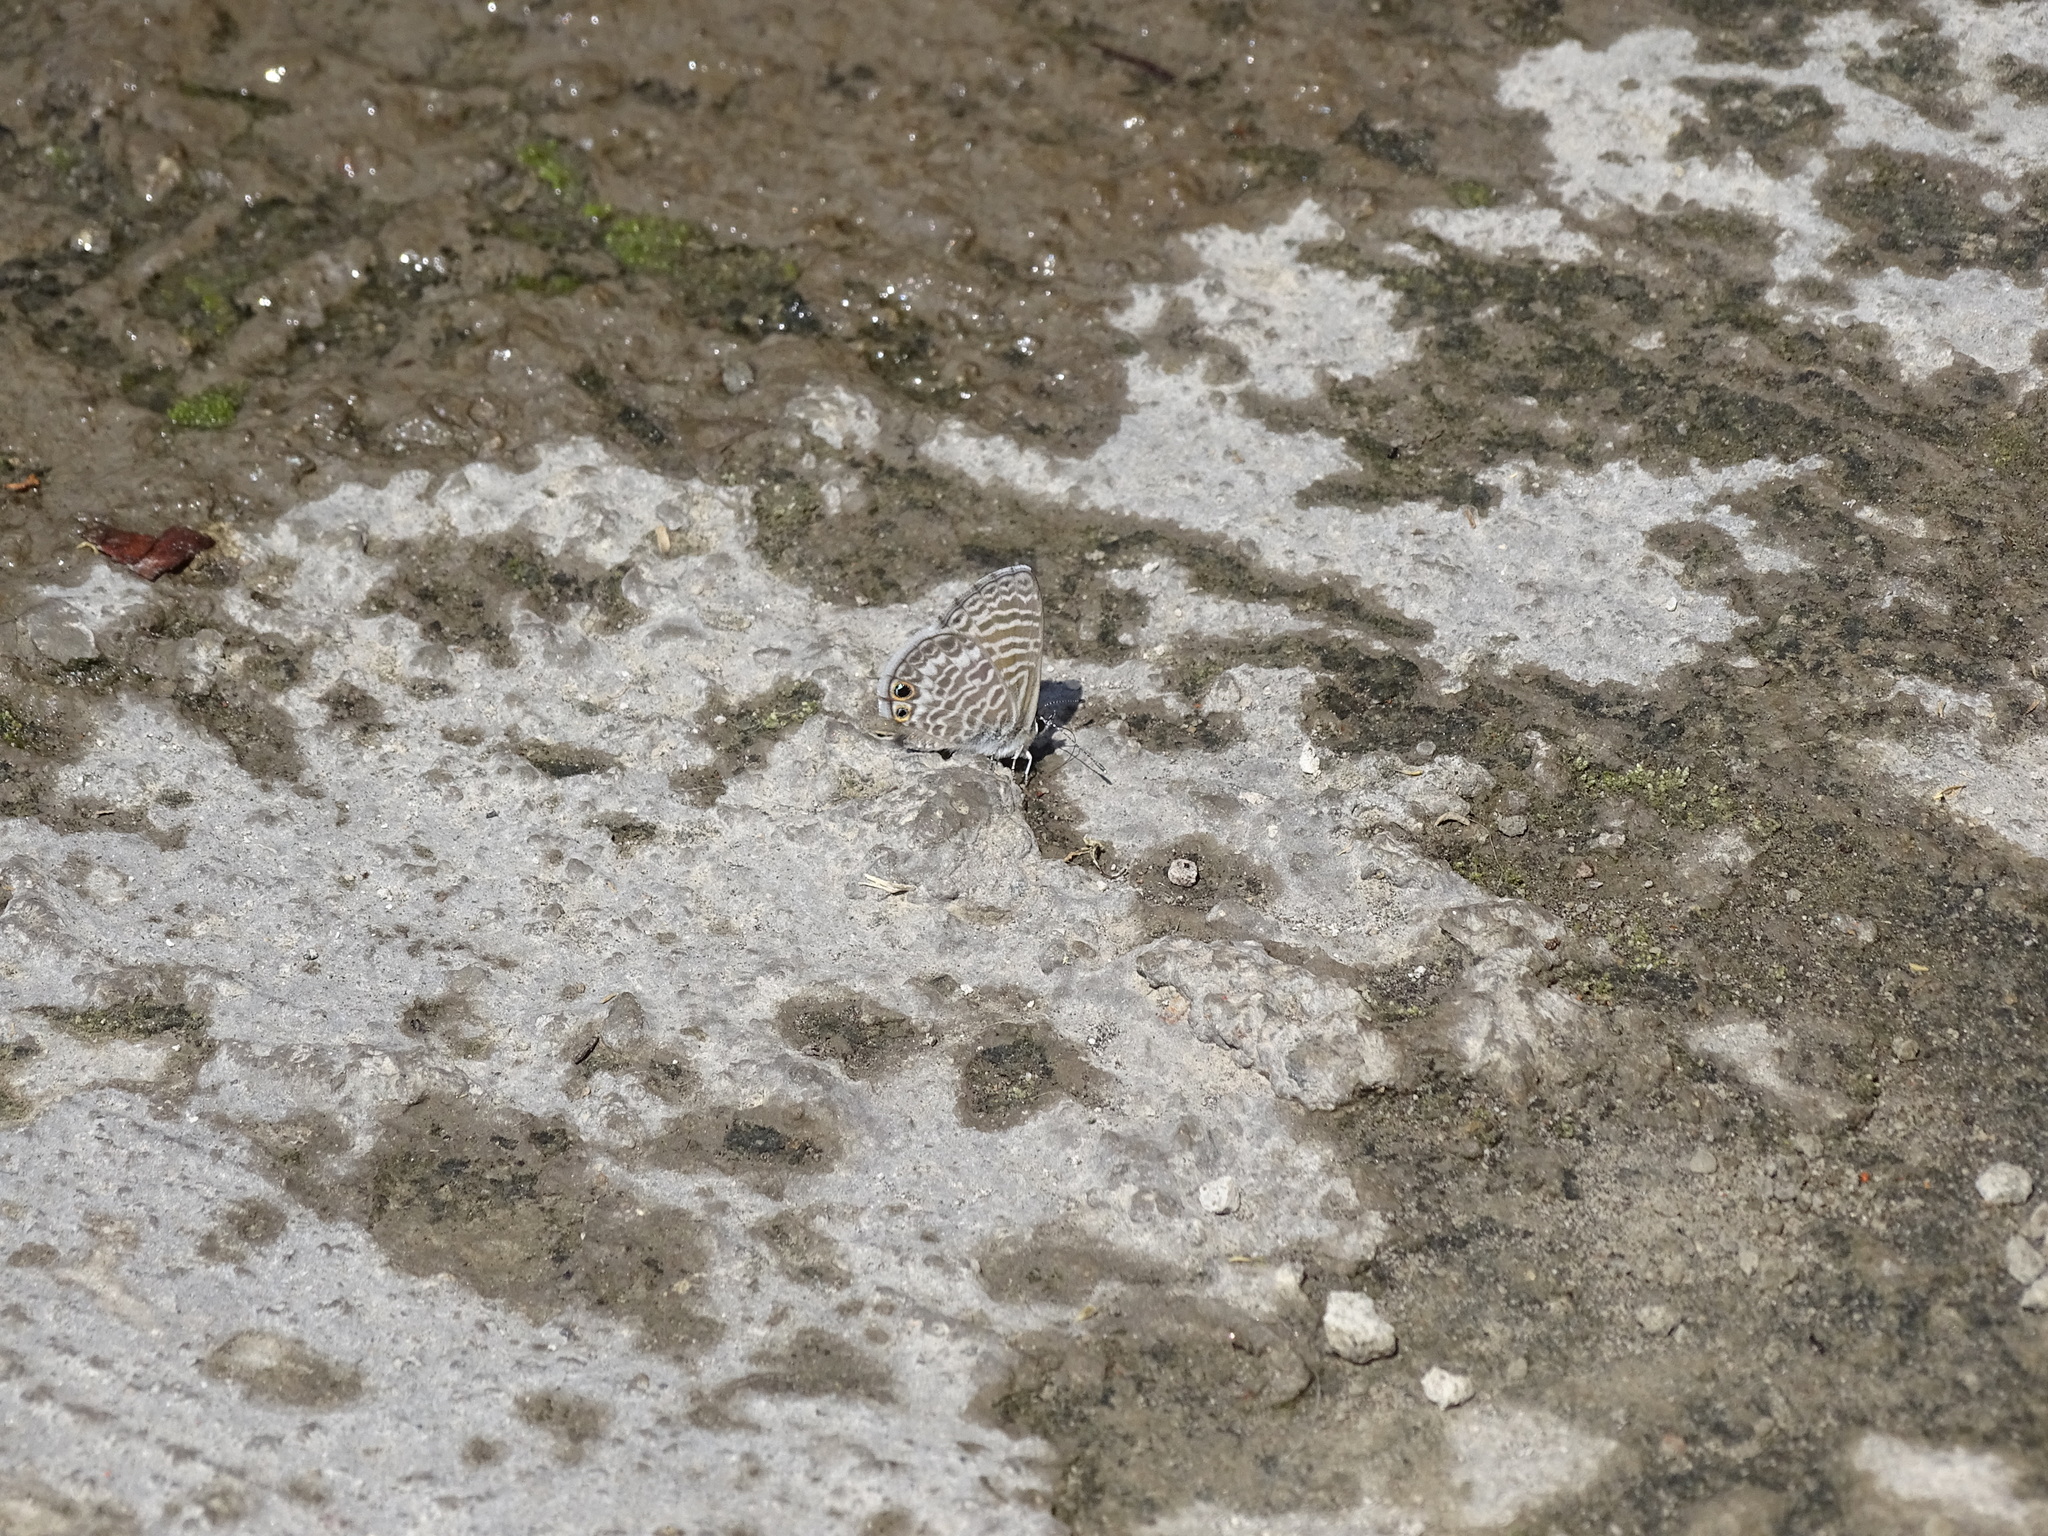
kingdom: Animalia
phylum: Arthropoda
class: Insecta
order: Lepidoptera
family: Lycaenidae
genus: Leptotes
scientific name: Leptotes marina
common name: Marine blue
